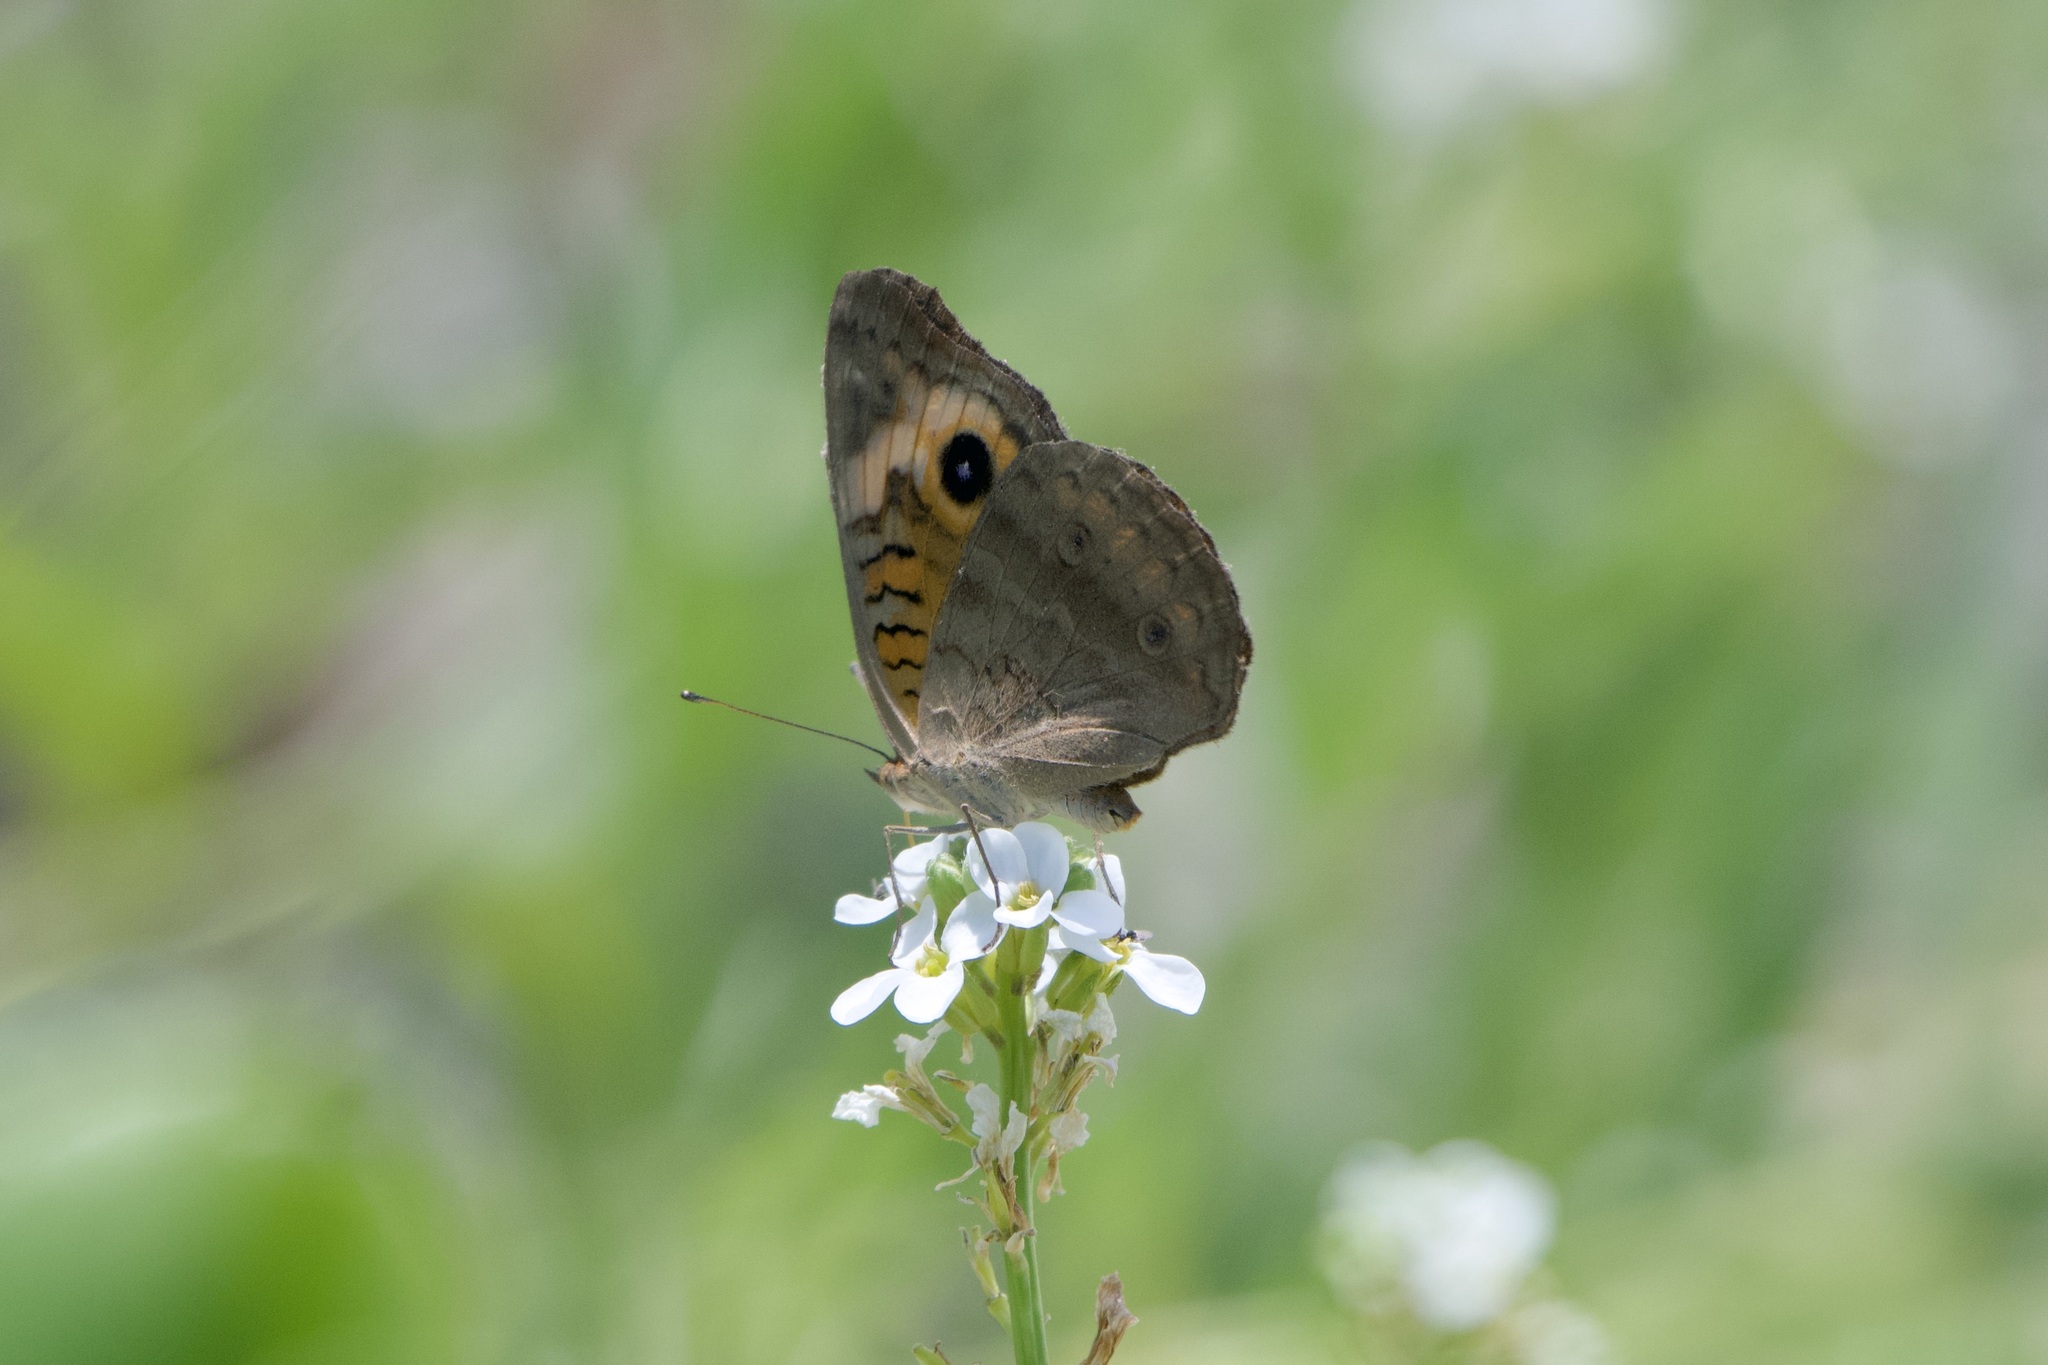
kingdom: Animalia
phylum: Arthropoda
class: Insecta
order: Lepidoptera
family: Nymphalidae
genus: Junonia
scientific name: Junonia neildi
